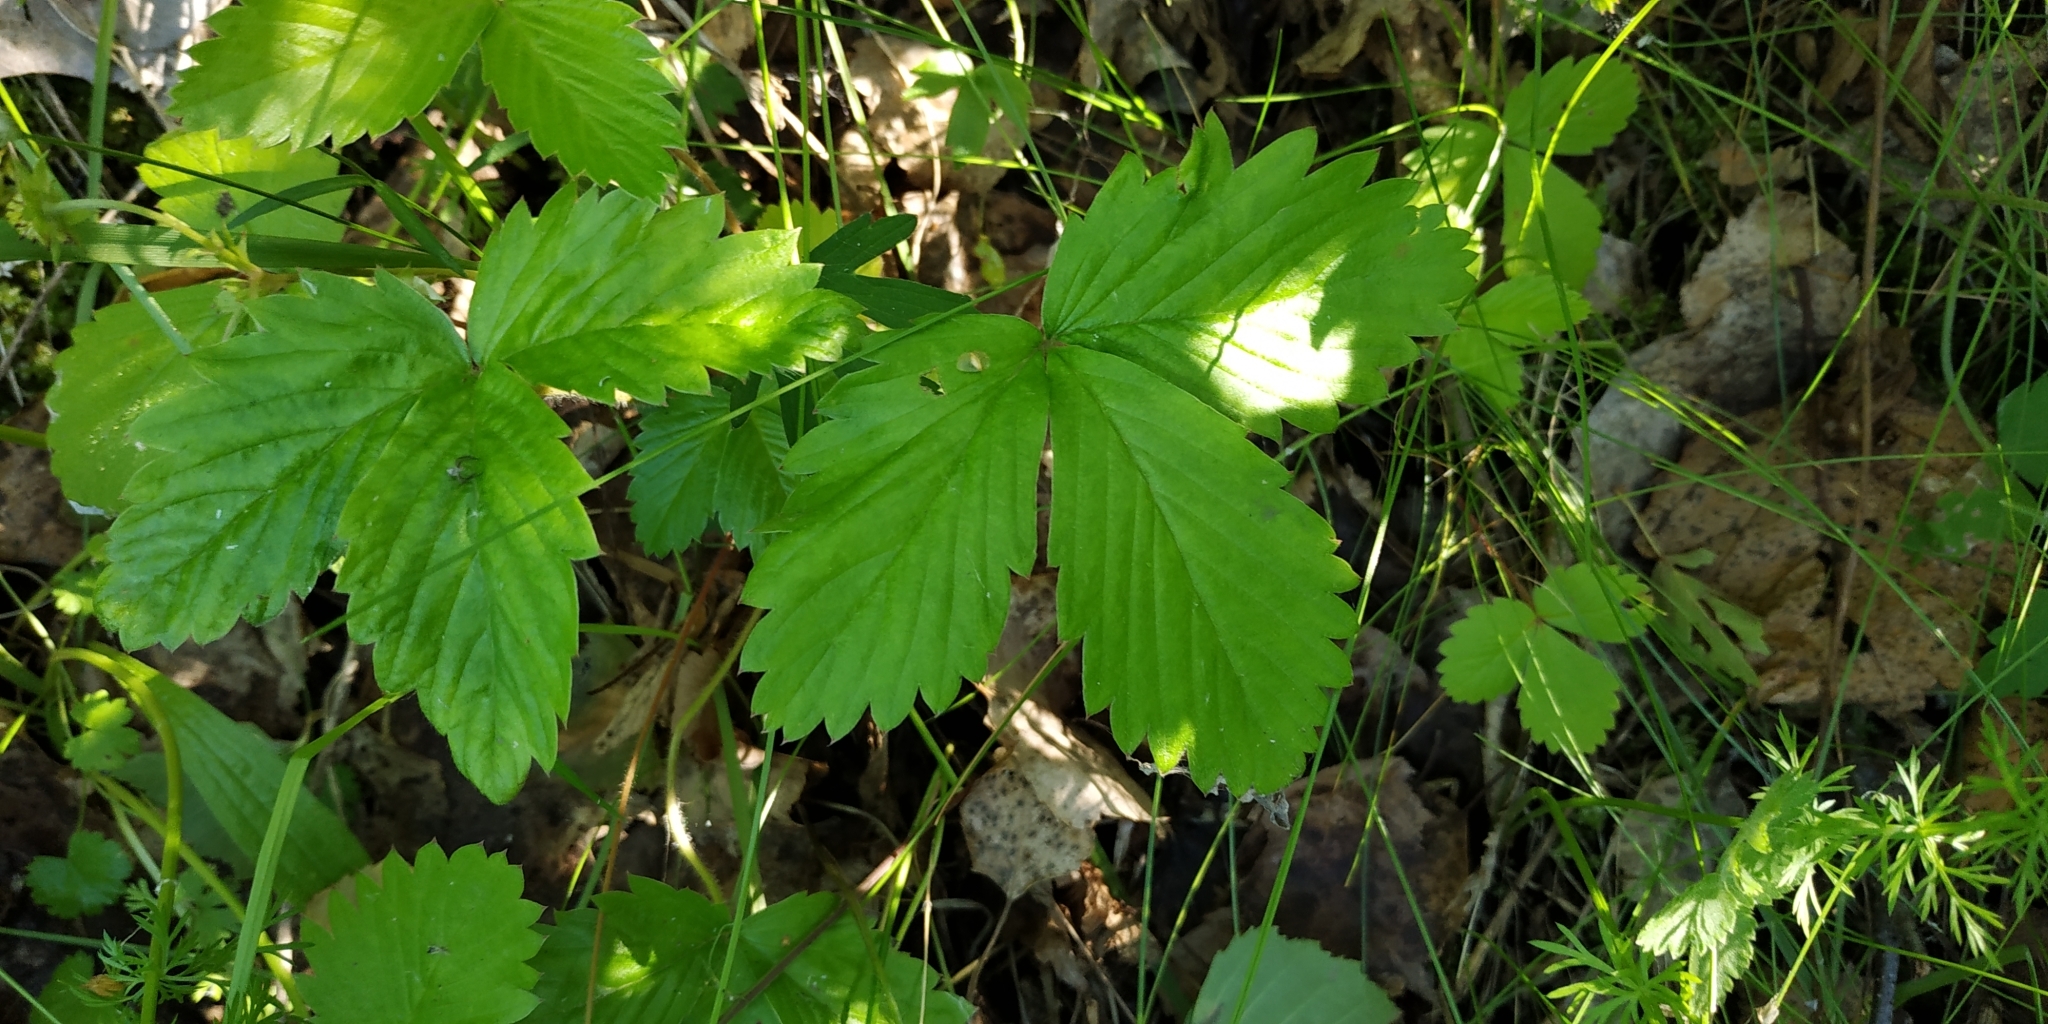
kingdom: Plantae
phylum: Tracheophyta
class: Magnoliopsida
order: Rosales
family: Rosaceae
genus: Fragaria
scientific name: Fragaria vesca
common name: Wild strawberry
